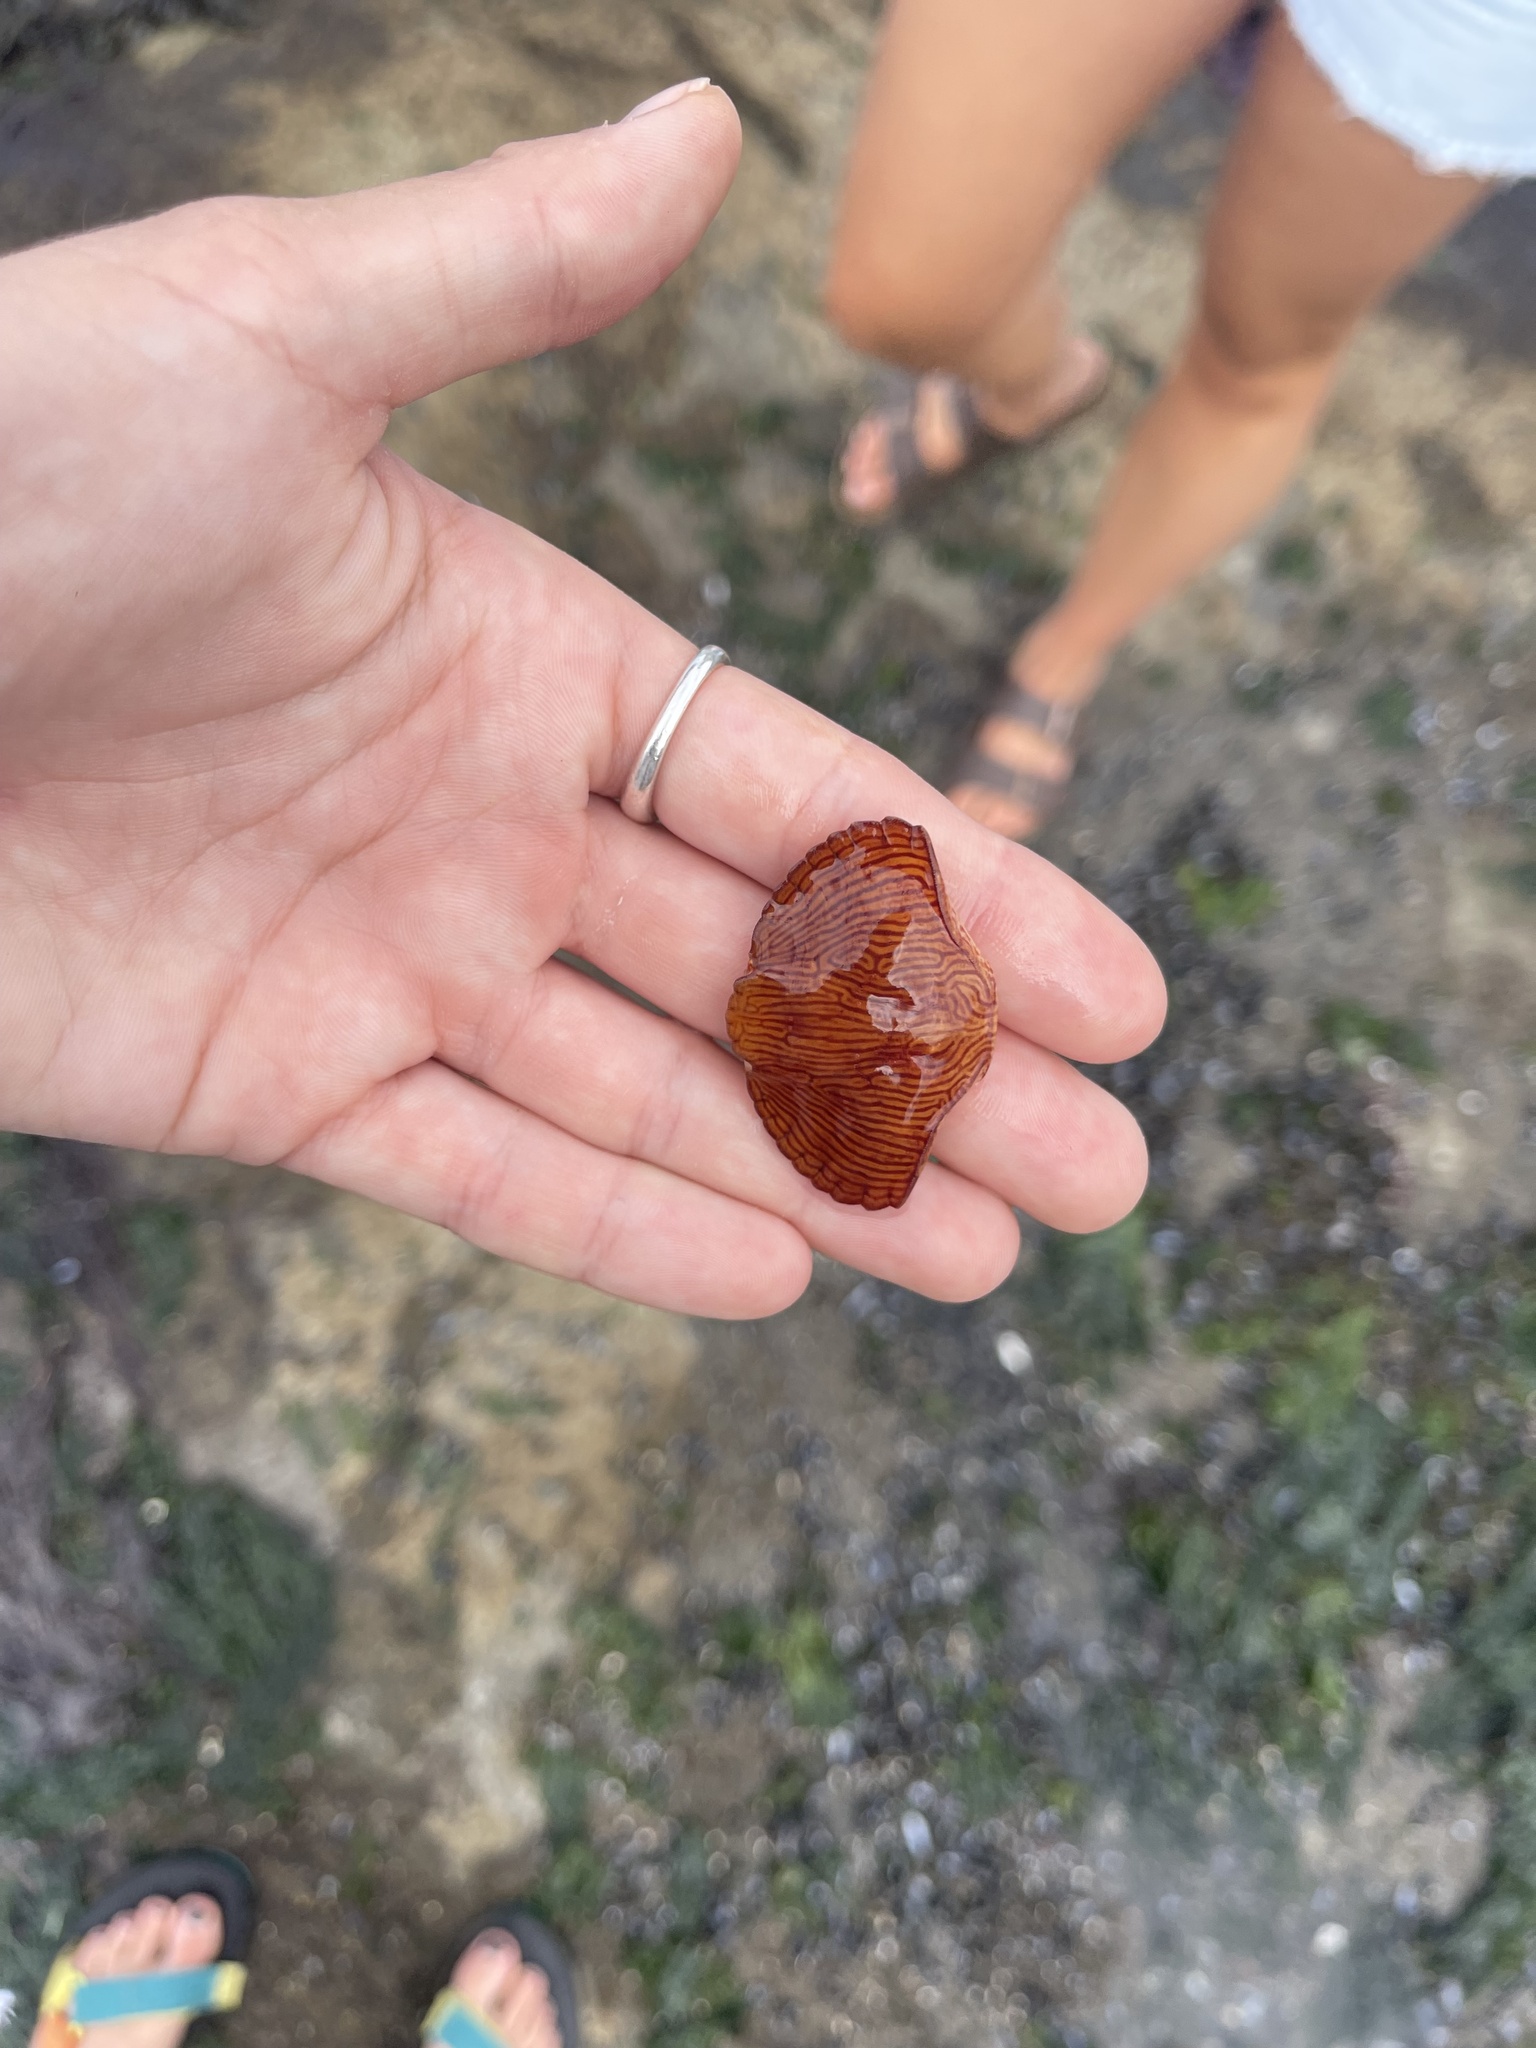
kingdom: Animalia
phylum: Arthropoda
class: Malacostraca
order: Decapoda
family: Cancridae
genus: Cancer
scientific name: Cancer productus
